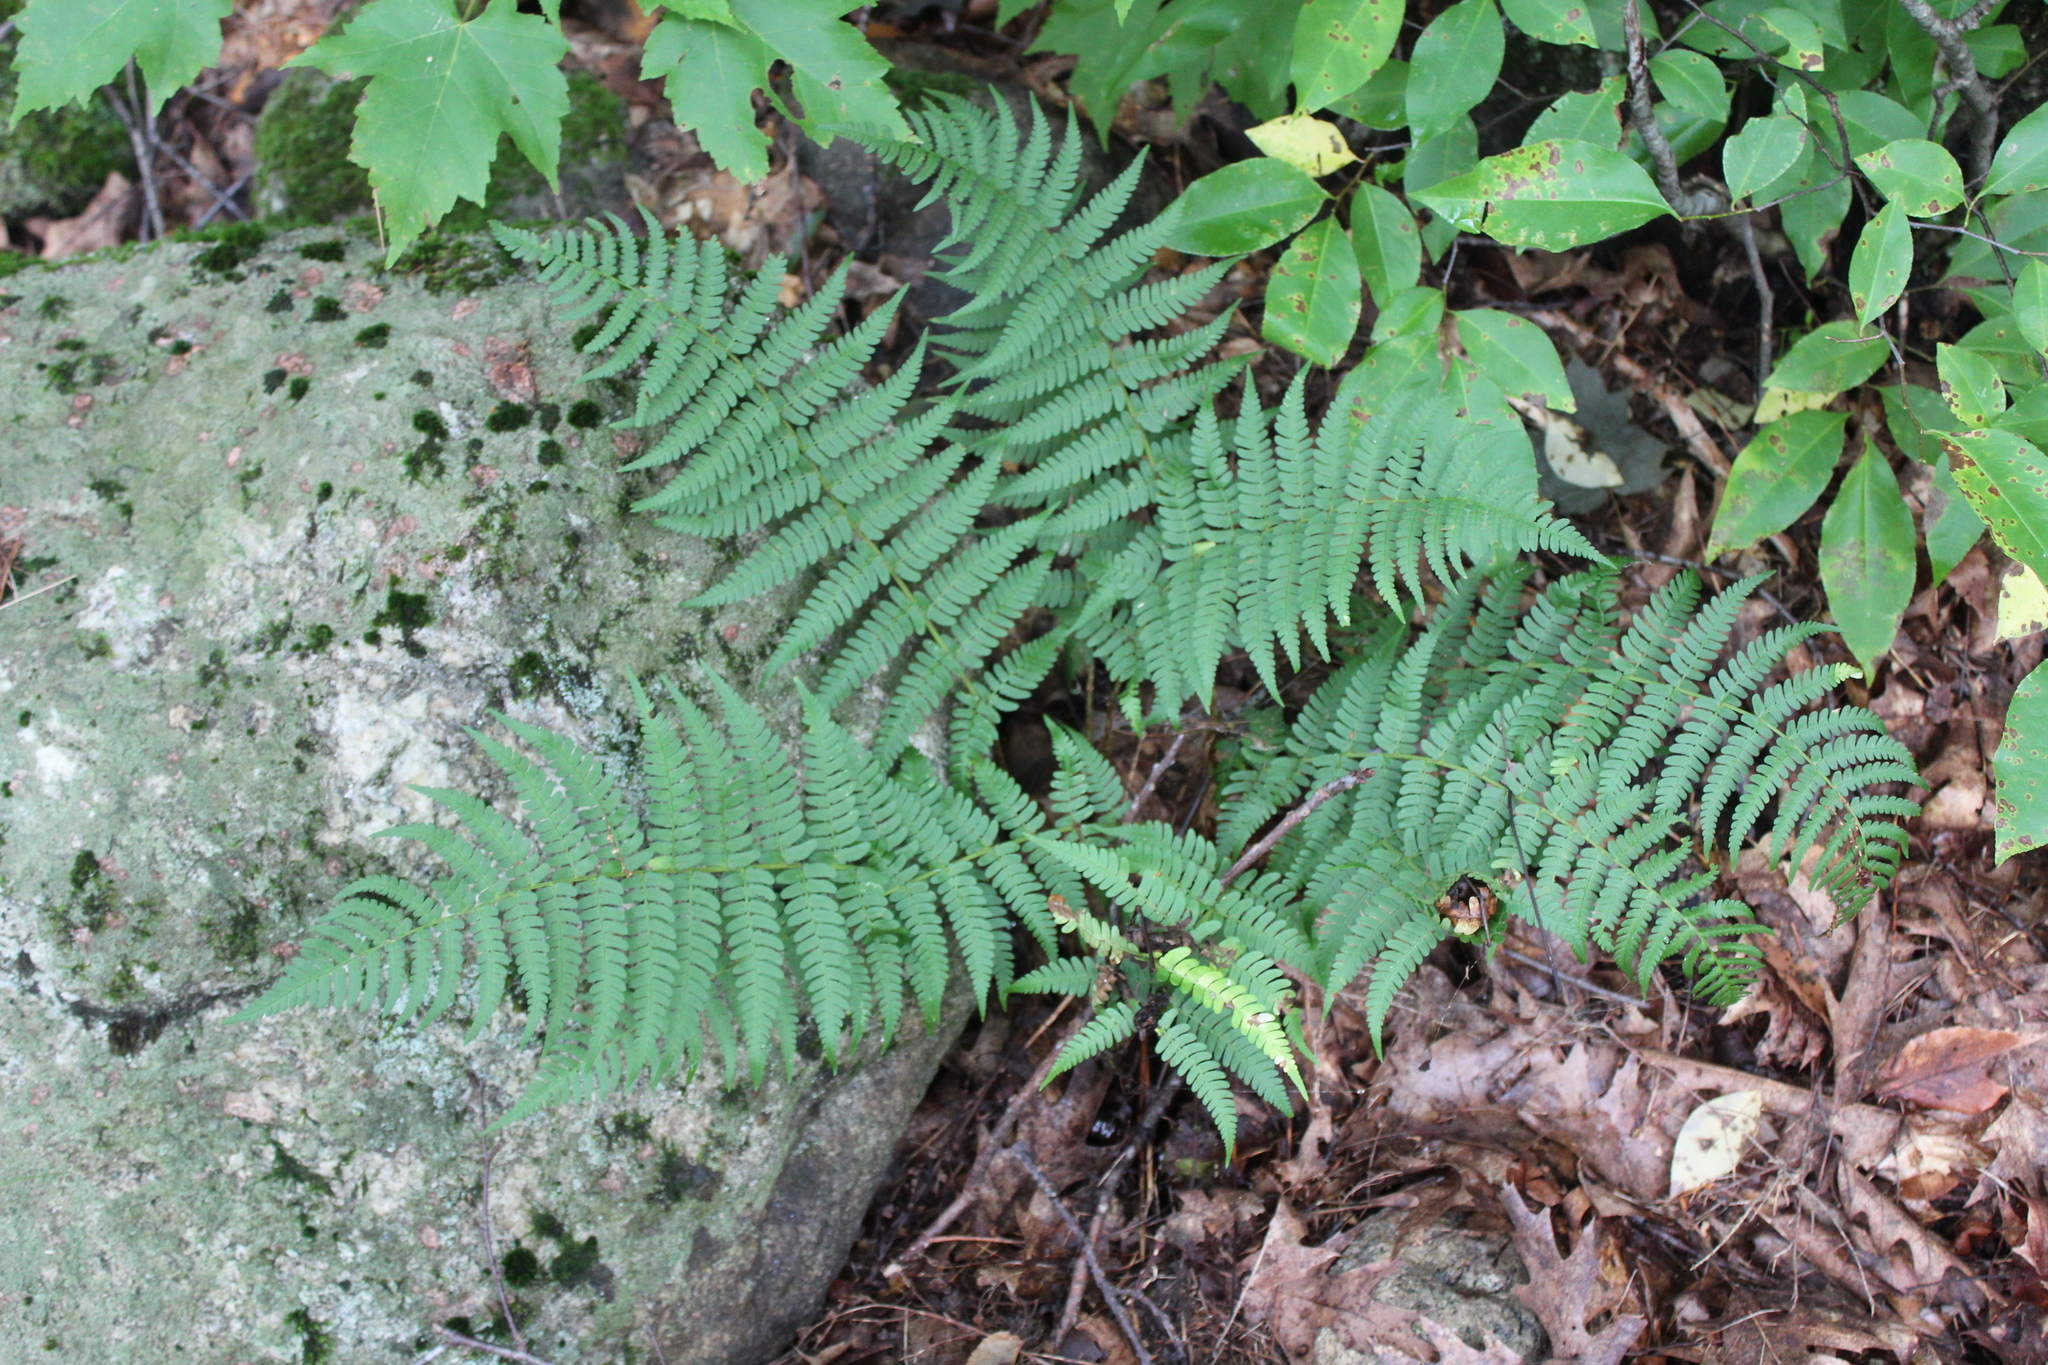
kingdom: Plantae
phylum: Tracheophyta
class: Polypodiopsida
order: Polypodiales
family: Dryopteridaceae
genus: Dryopteris
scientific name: Dryopteris marginalis
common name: Marginal wood fern
